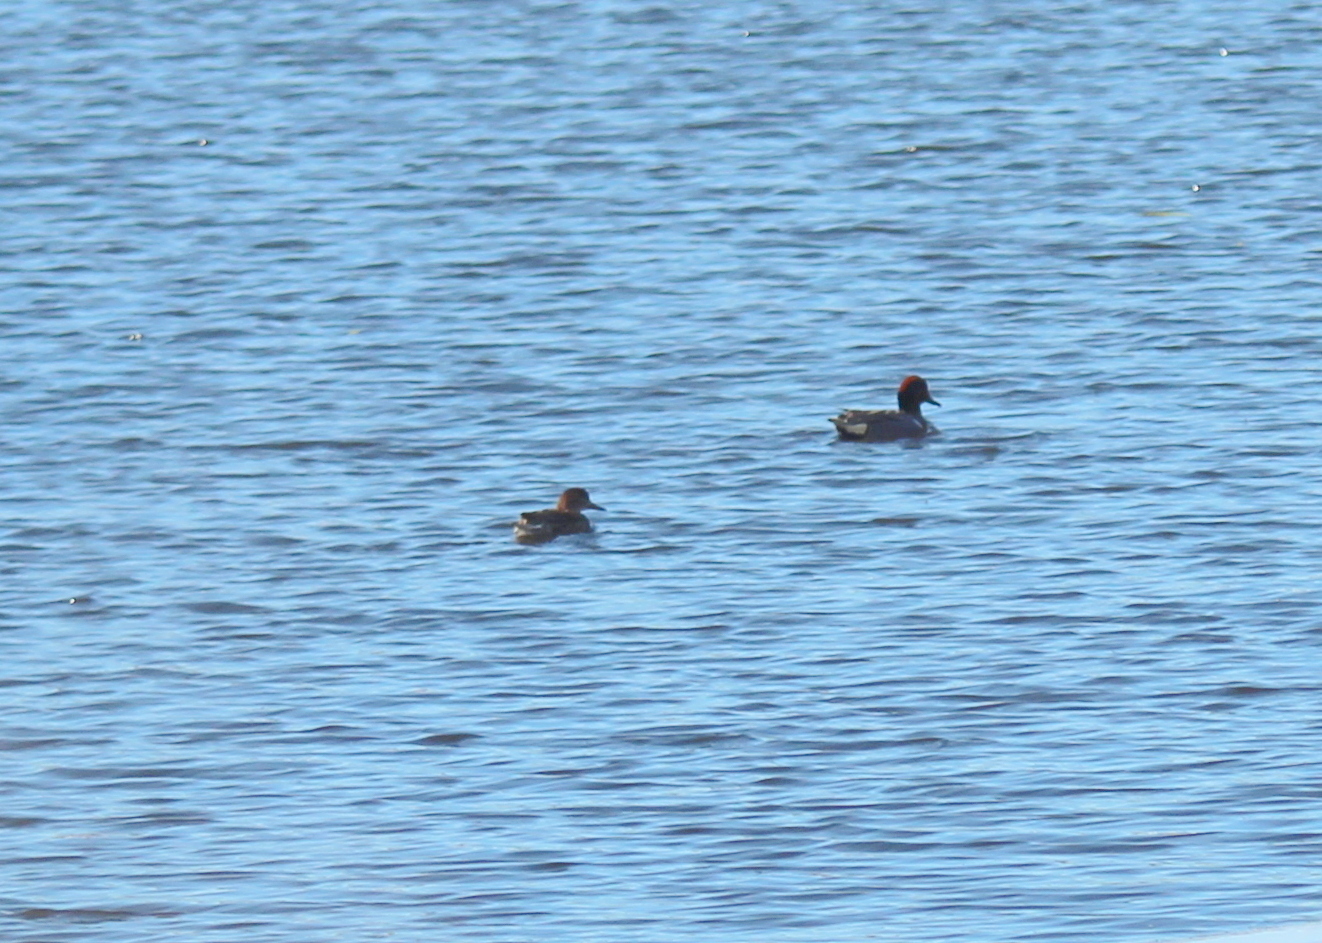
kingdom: Animalia
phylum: Chordata
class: Aves
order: Anseriformes
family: Anatidae
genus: Anas
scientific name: Anas carolinensis
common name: Green-winged teal
